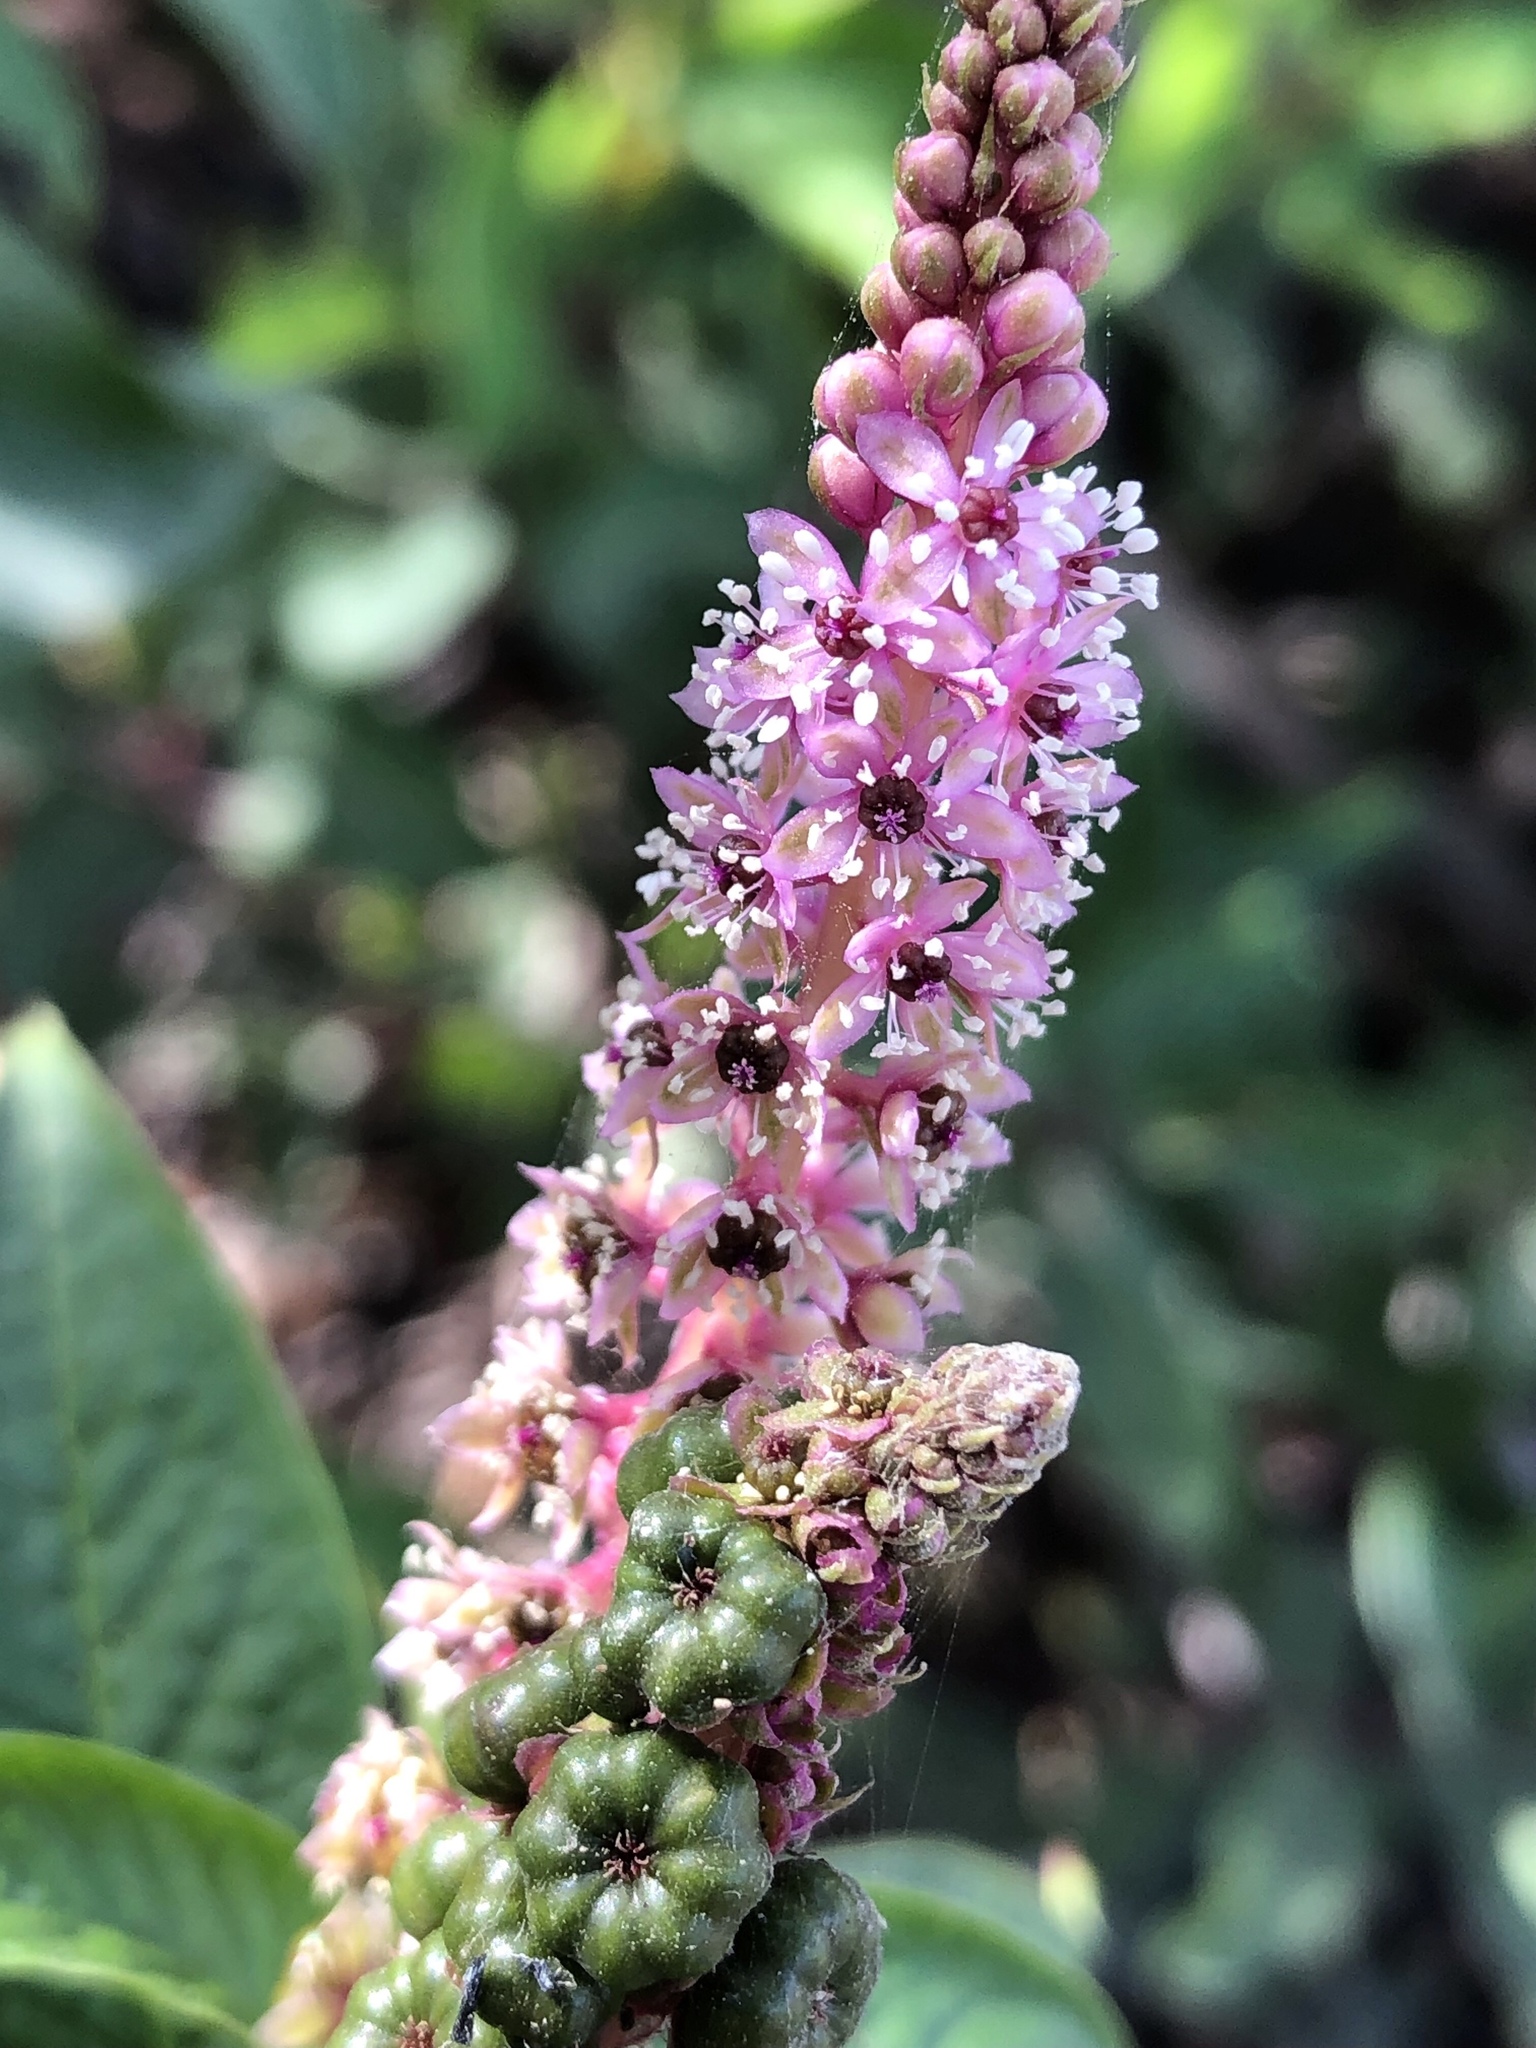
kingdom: Plantae
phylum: Tracheophyta
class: Magnoliopsida
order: Caryophyllales
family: Phytolaccaceae
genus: Phytolacca
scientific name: Phytolacca icosandra
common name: Button pokeweed
